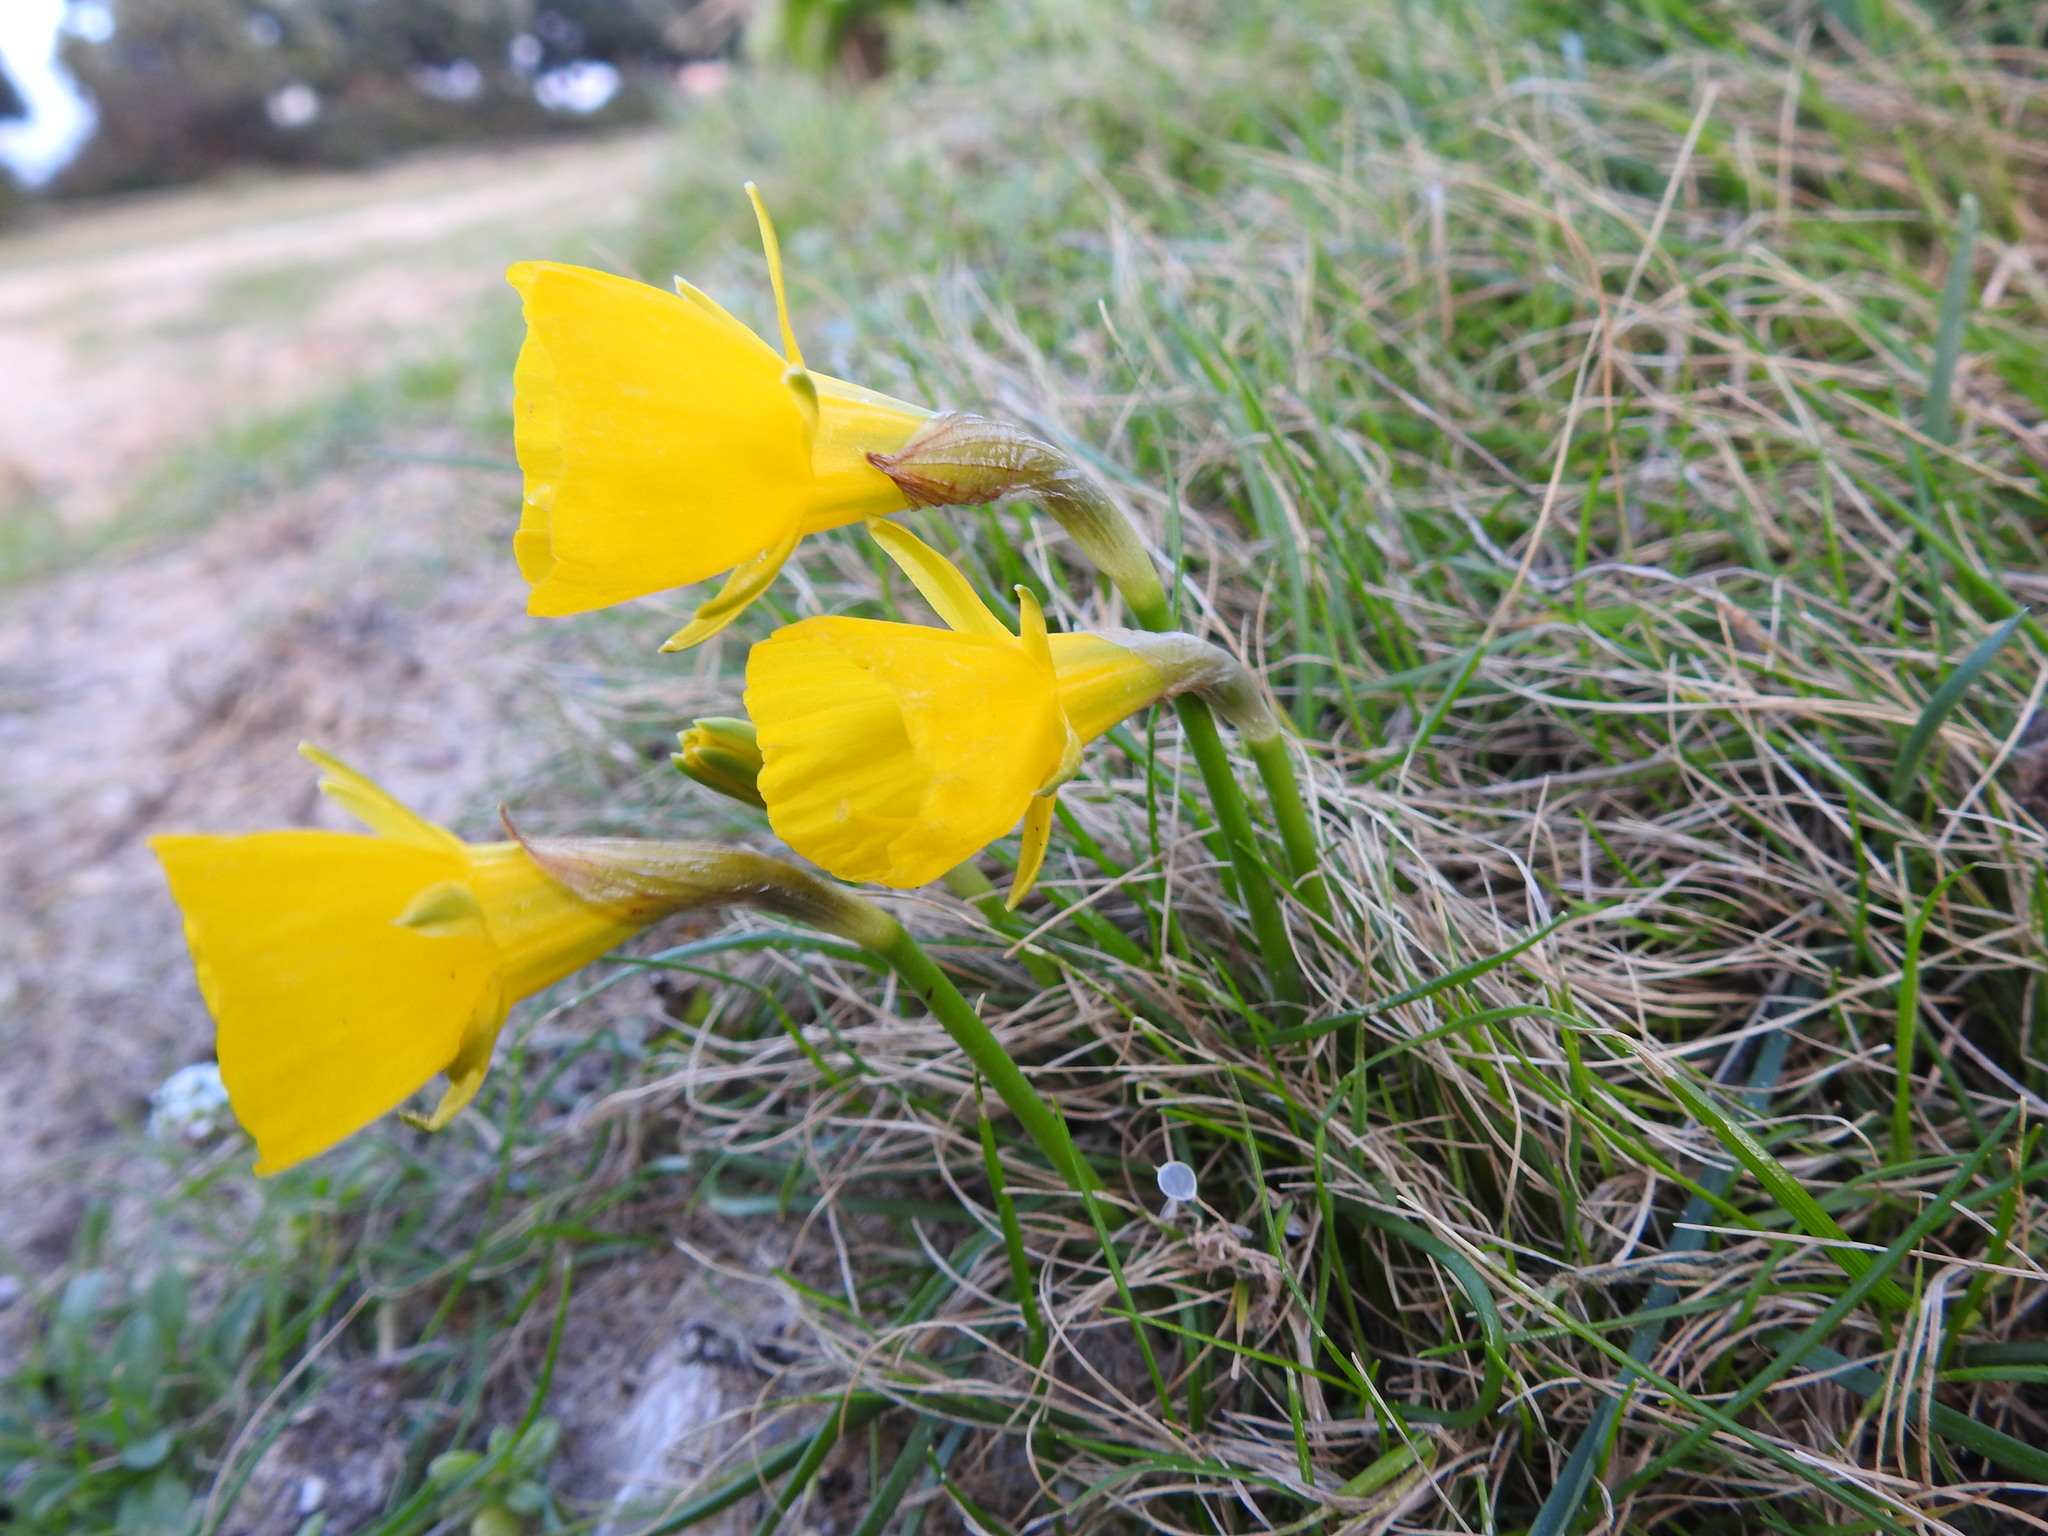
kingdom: Plantae
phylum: Tracheophyta
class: Liliopsida
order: Asparagales
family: Amaryllidaceae
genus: Narcissus
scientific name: Narcissus bulbocodium
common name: Hoop-petticoat daffodil
